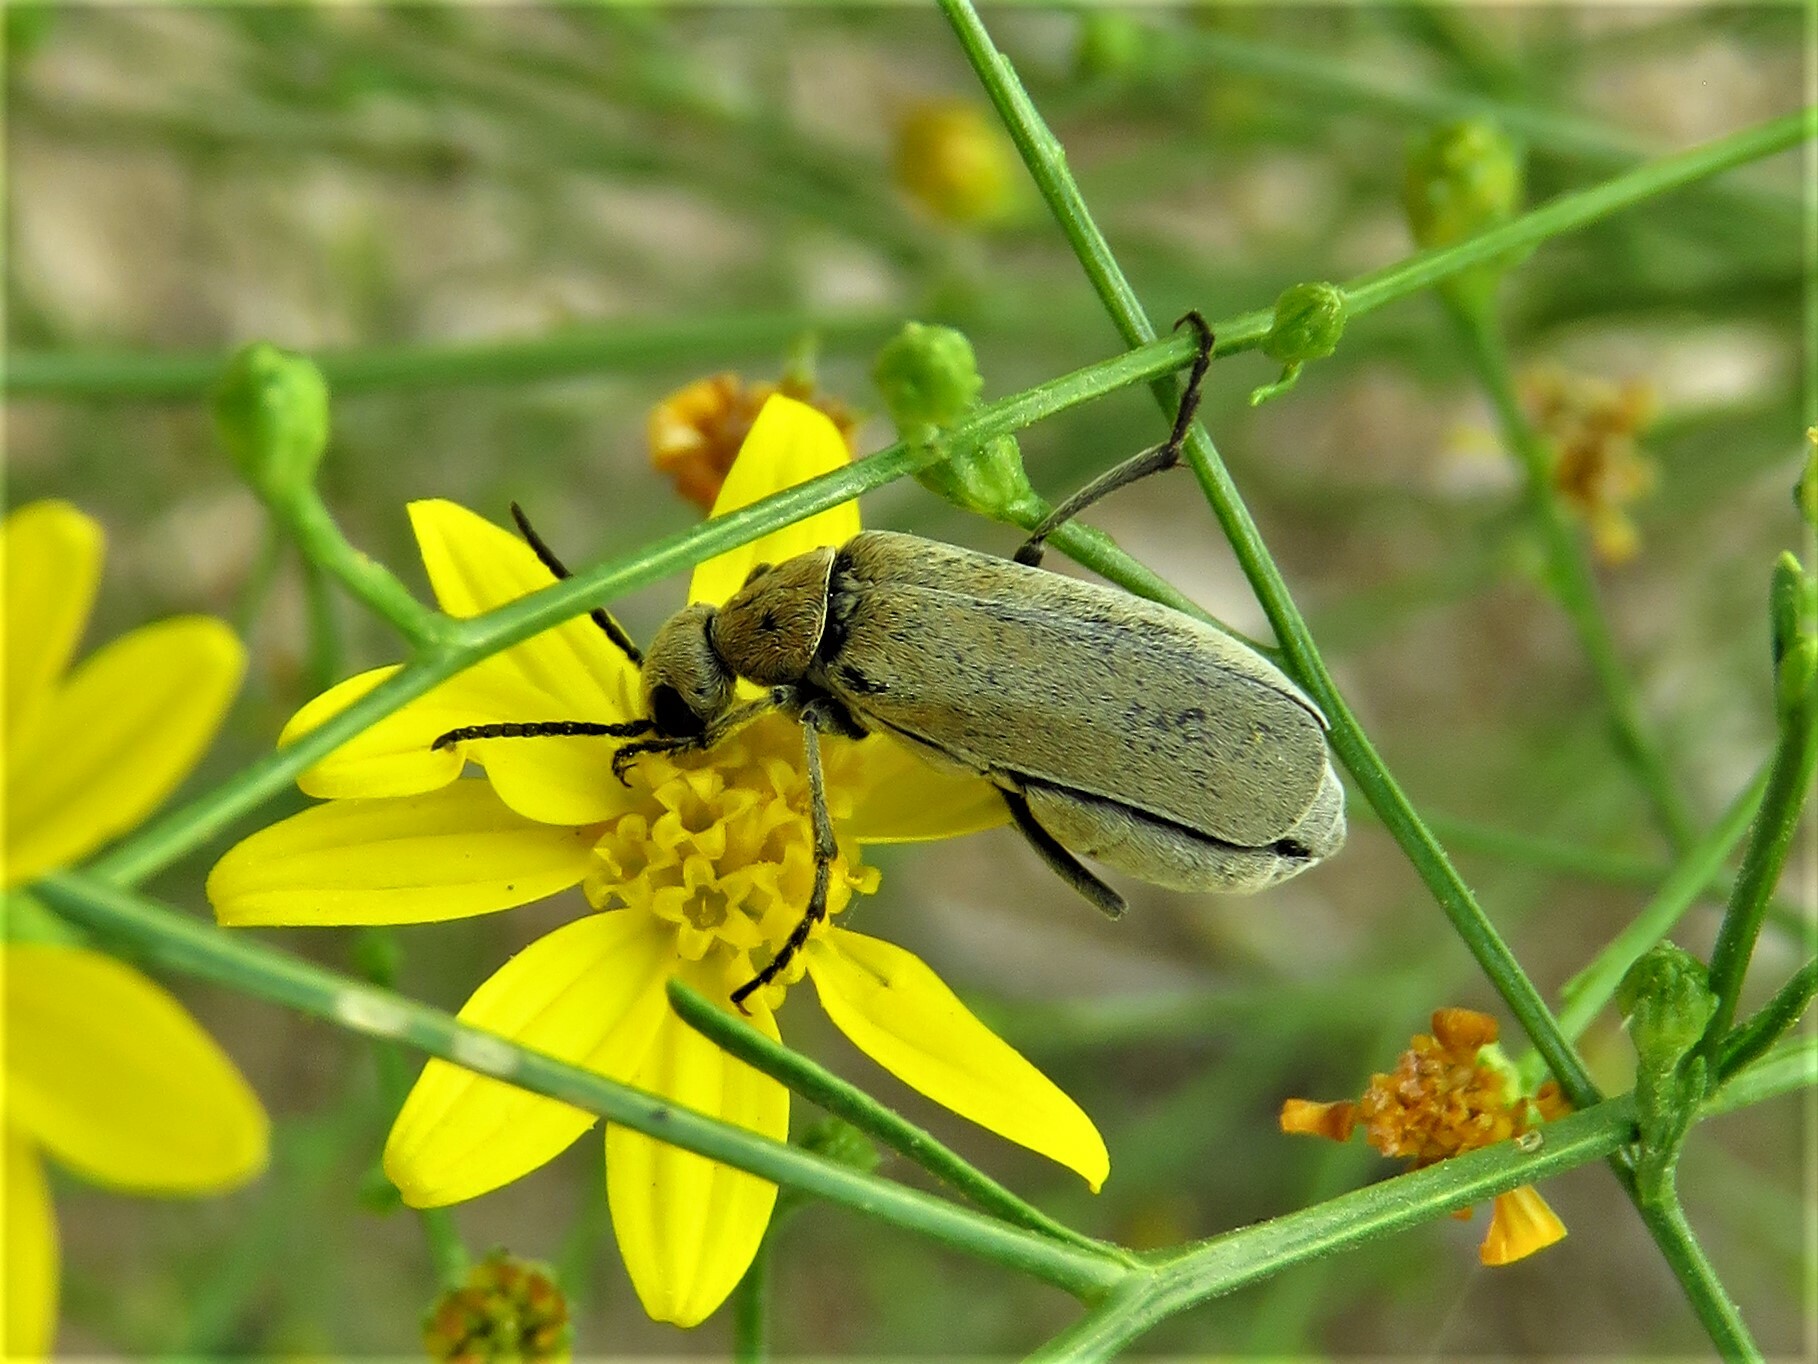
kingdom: Animalia
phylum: Arthropoda
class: Insecta
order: Coleoptera
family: Meloidae
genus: Epicauta
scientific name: Epicauta callosa
